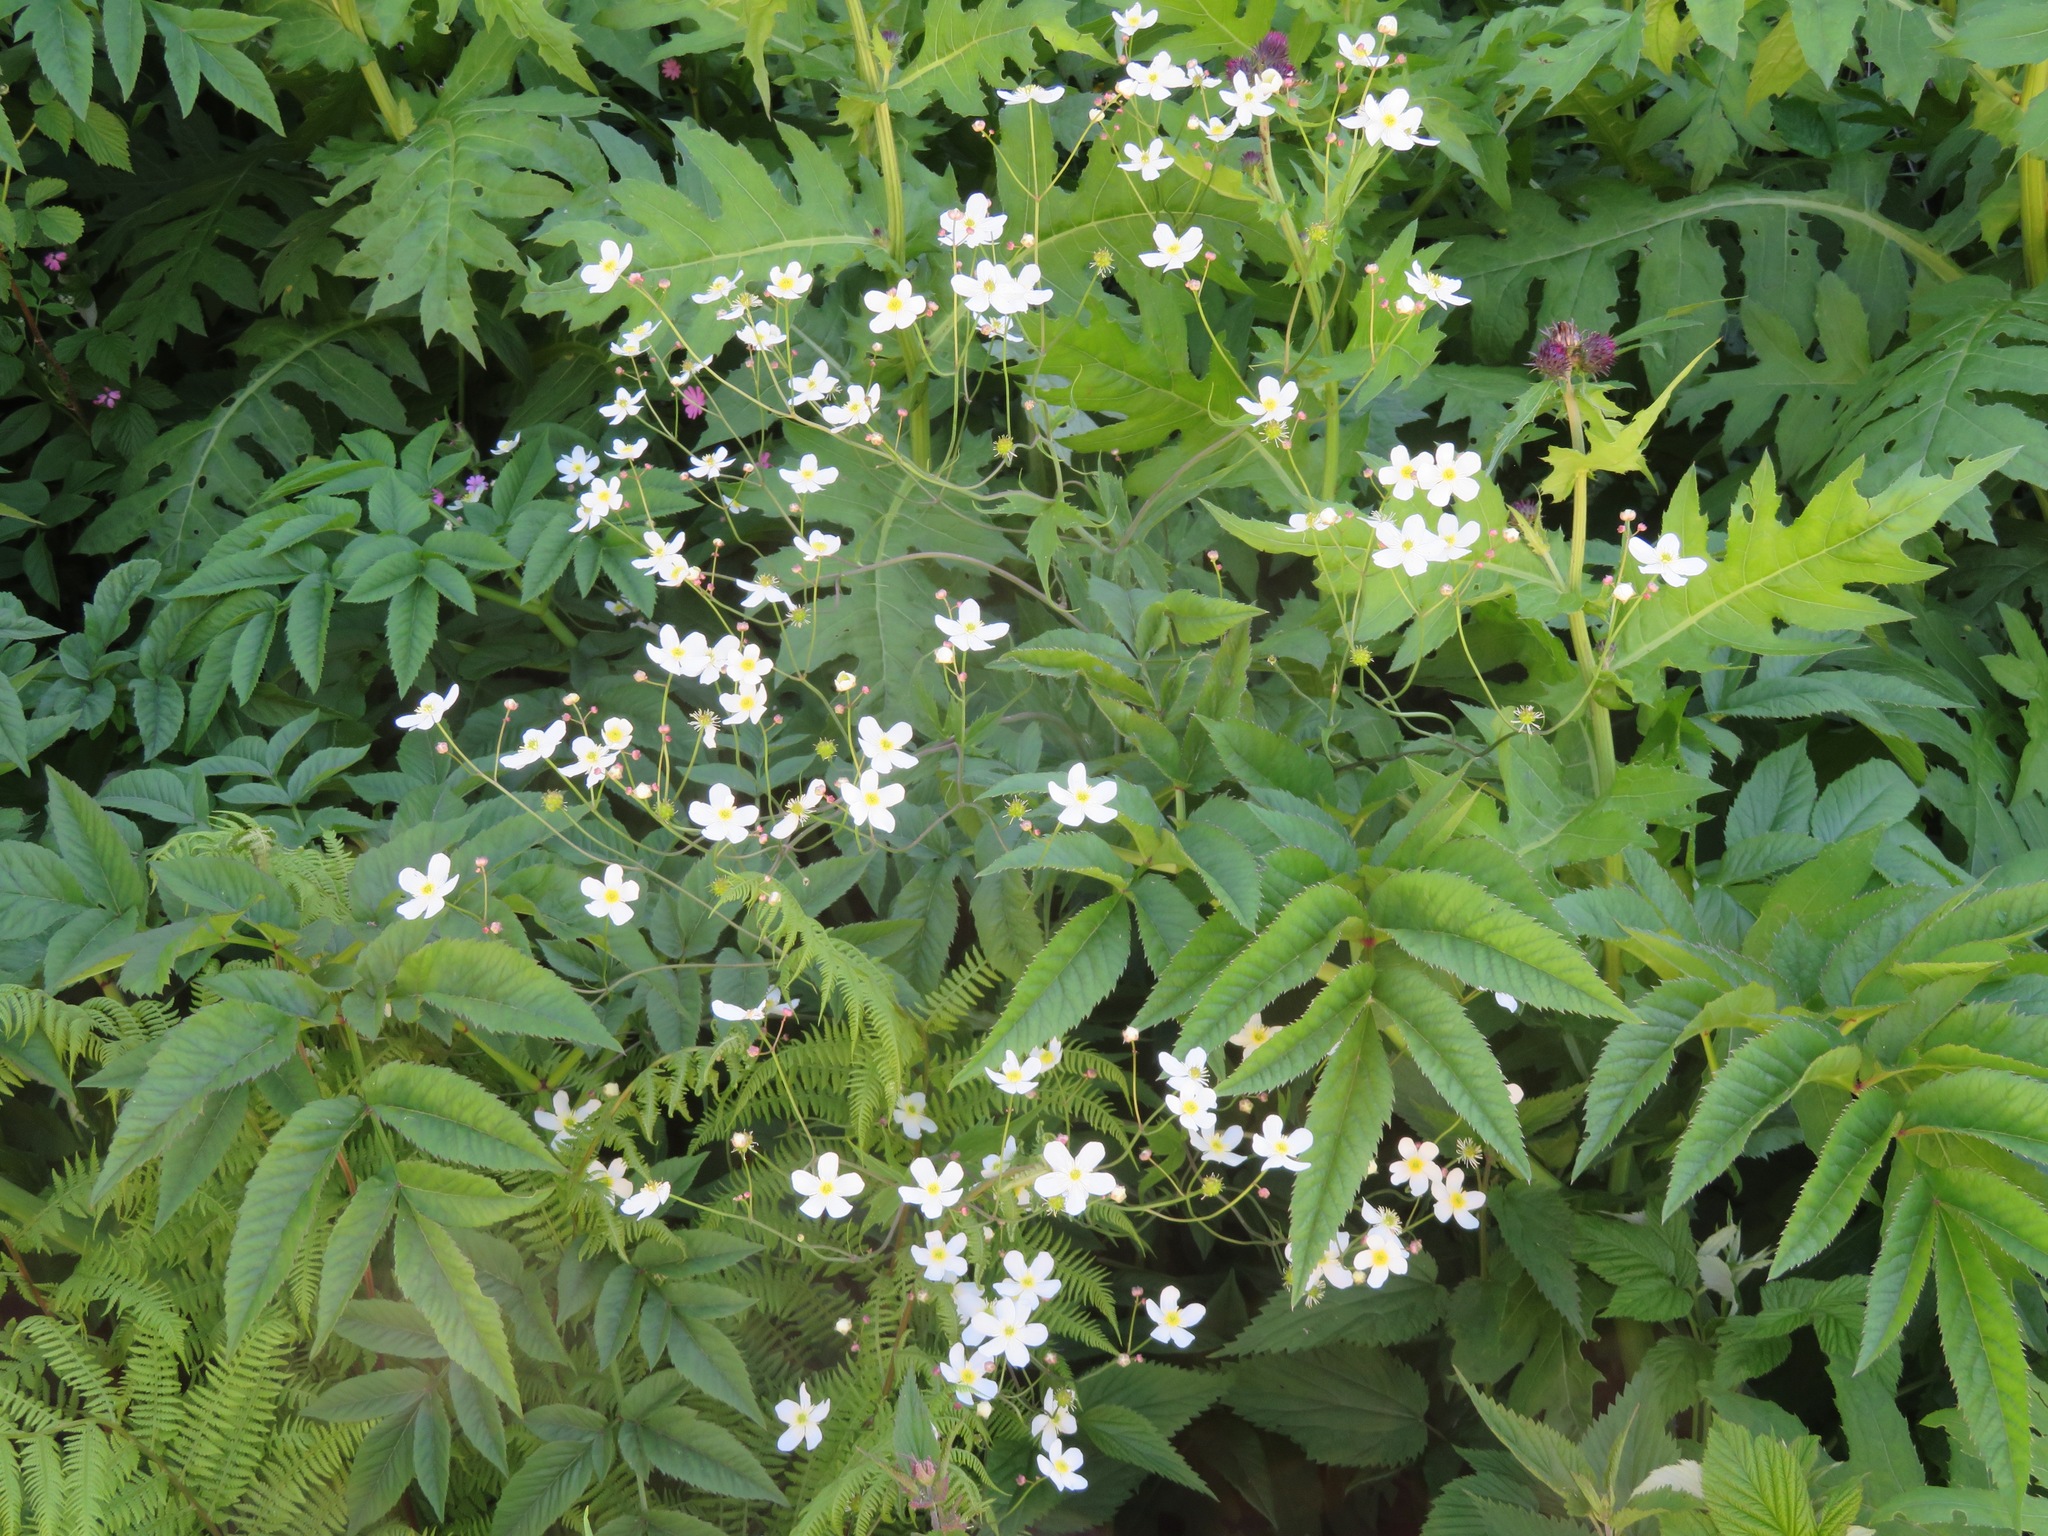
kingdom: Plantae
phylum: Tracheophyta
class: Magnoliopsida
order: Ranunculales
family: Ranunculaceae
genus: Ranunculus
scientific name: Ranunculus platanifolius
